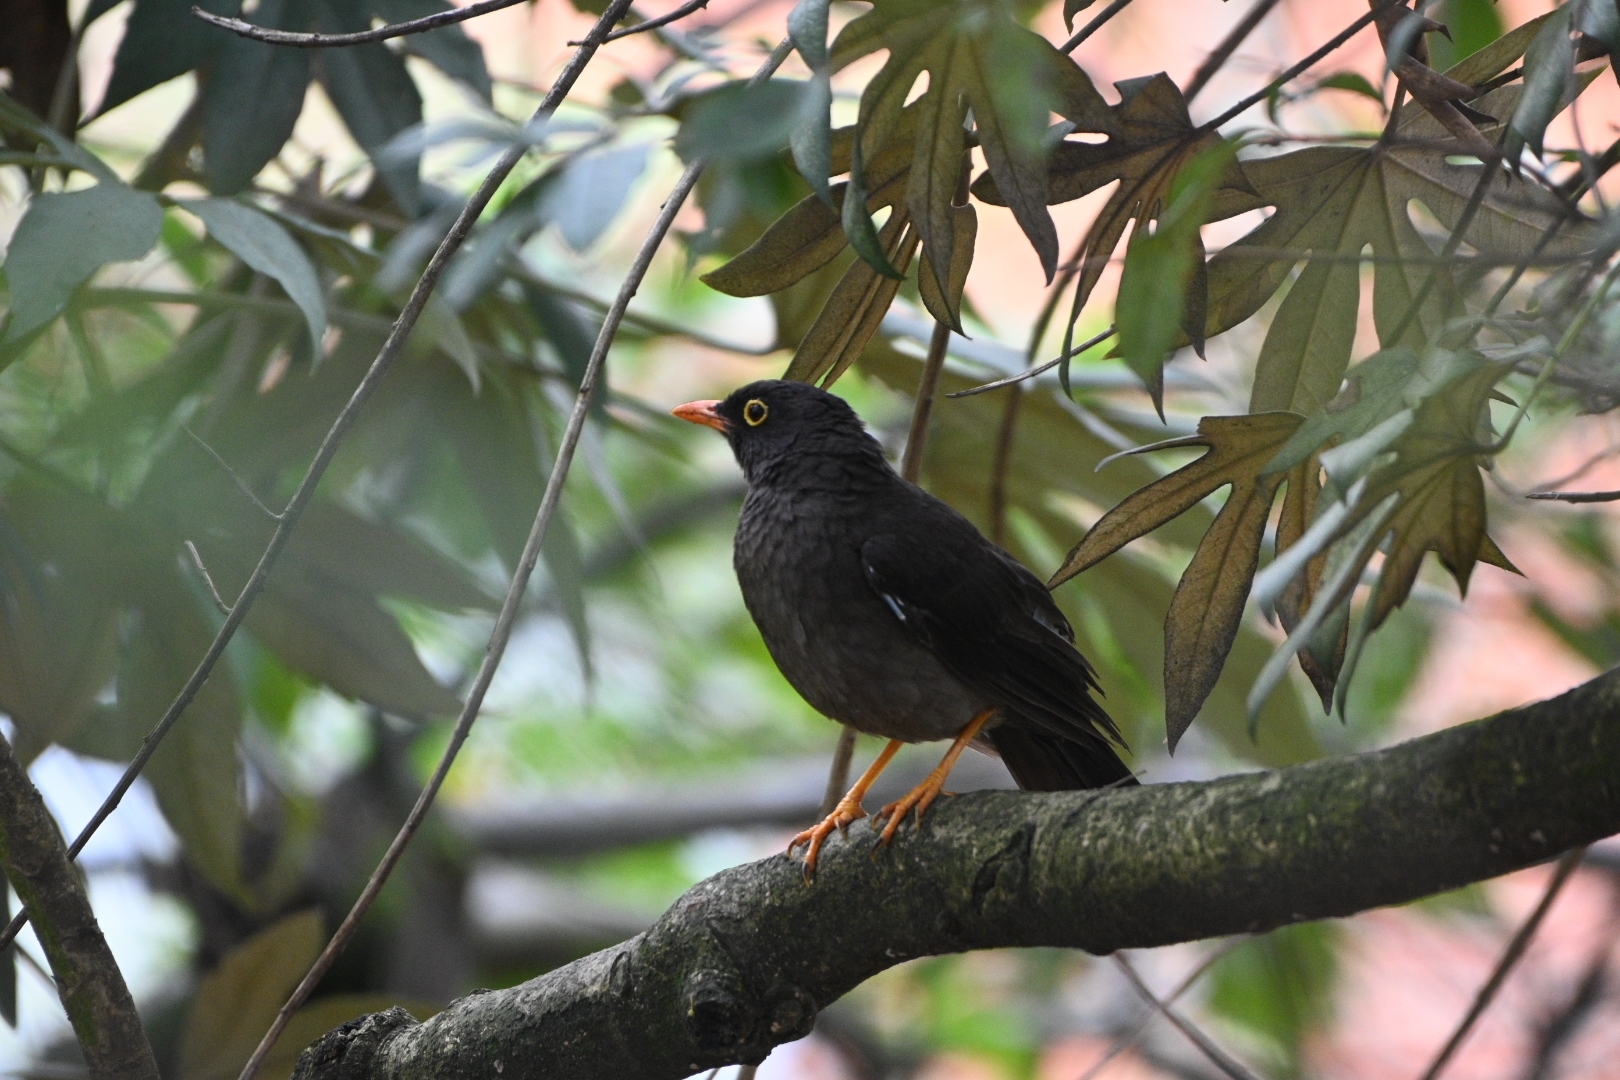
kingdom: Animalia
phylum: Chordata
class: Aves
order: Passeriformes
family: Turdidae
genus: Turdus
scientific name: Turdus fuscater
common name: Great thrush
